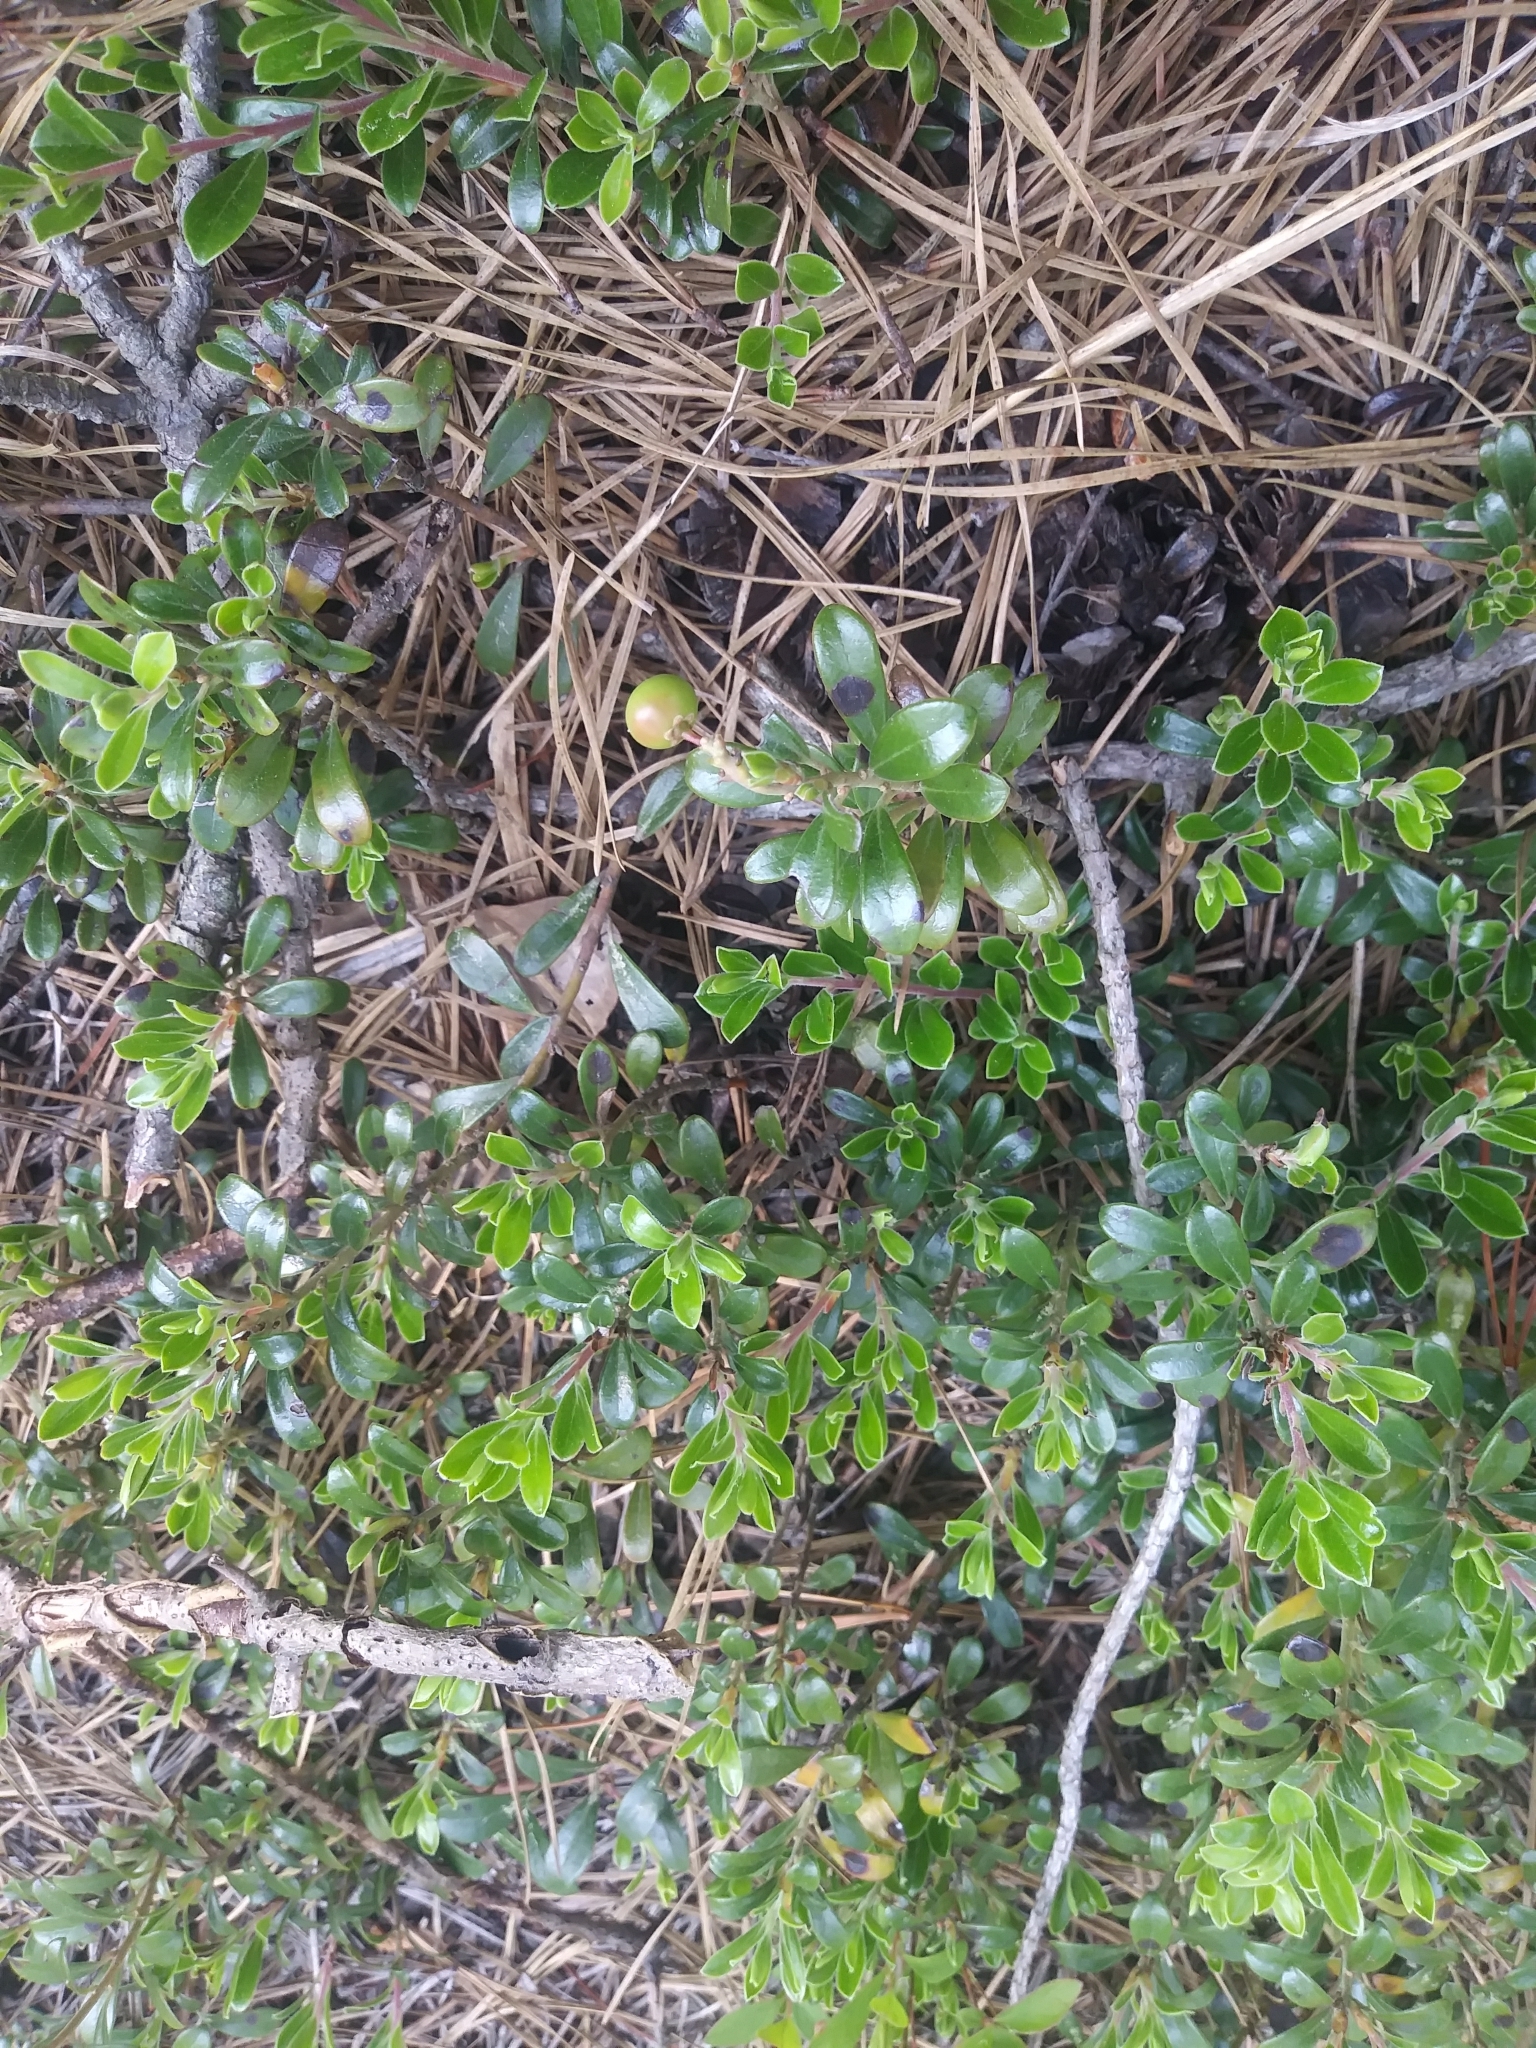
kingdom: Plantae
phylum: Tracheophyta
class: Magnoliopsida
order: Ericales
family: Ericaceae
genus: Arctostaphylos
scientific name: Arctostaphylos uva-ursi
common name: Bearberry
